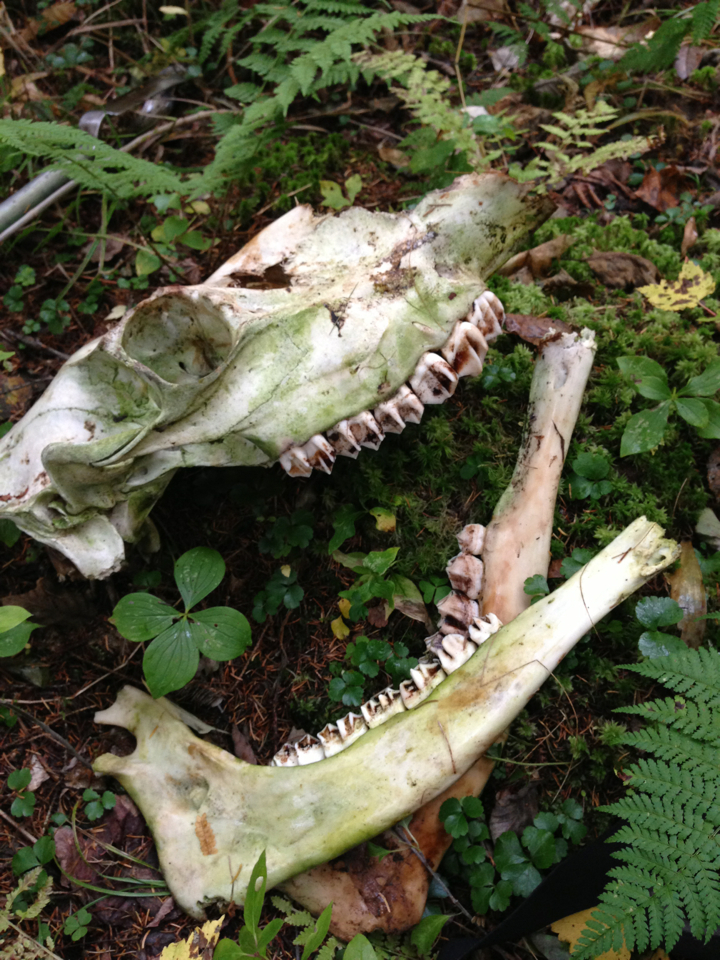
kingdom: Plantae
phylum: Tracheophyta
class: Magnoliopsida
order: Ranunculales
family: Ranunculaceae
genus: Coptis
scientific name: Coptis trifolia
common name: Canker-root
